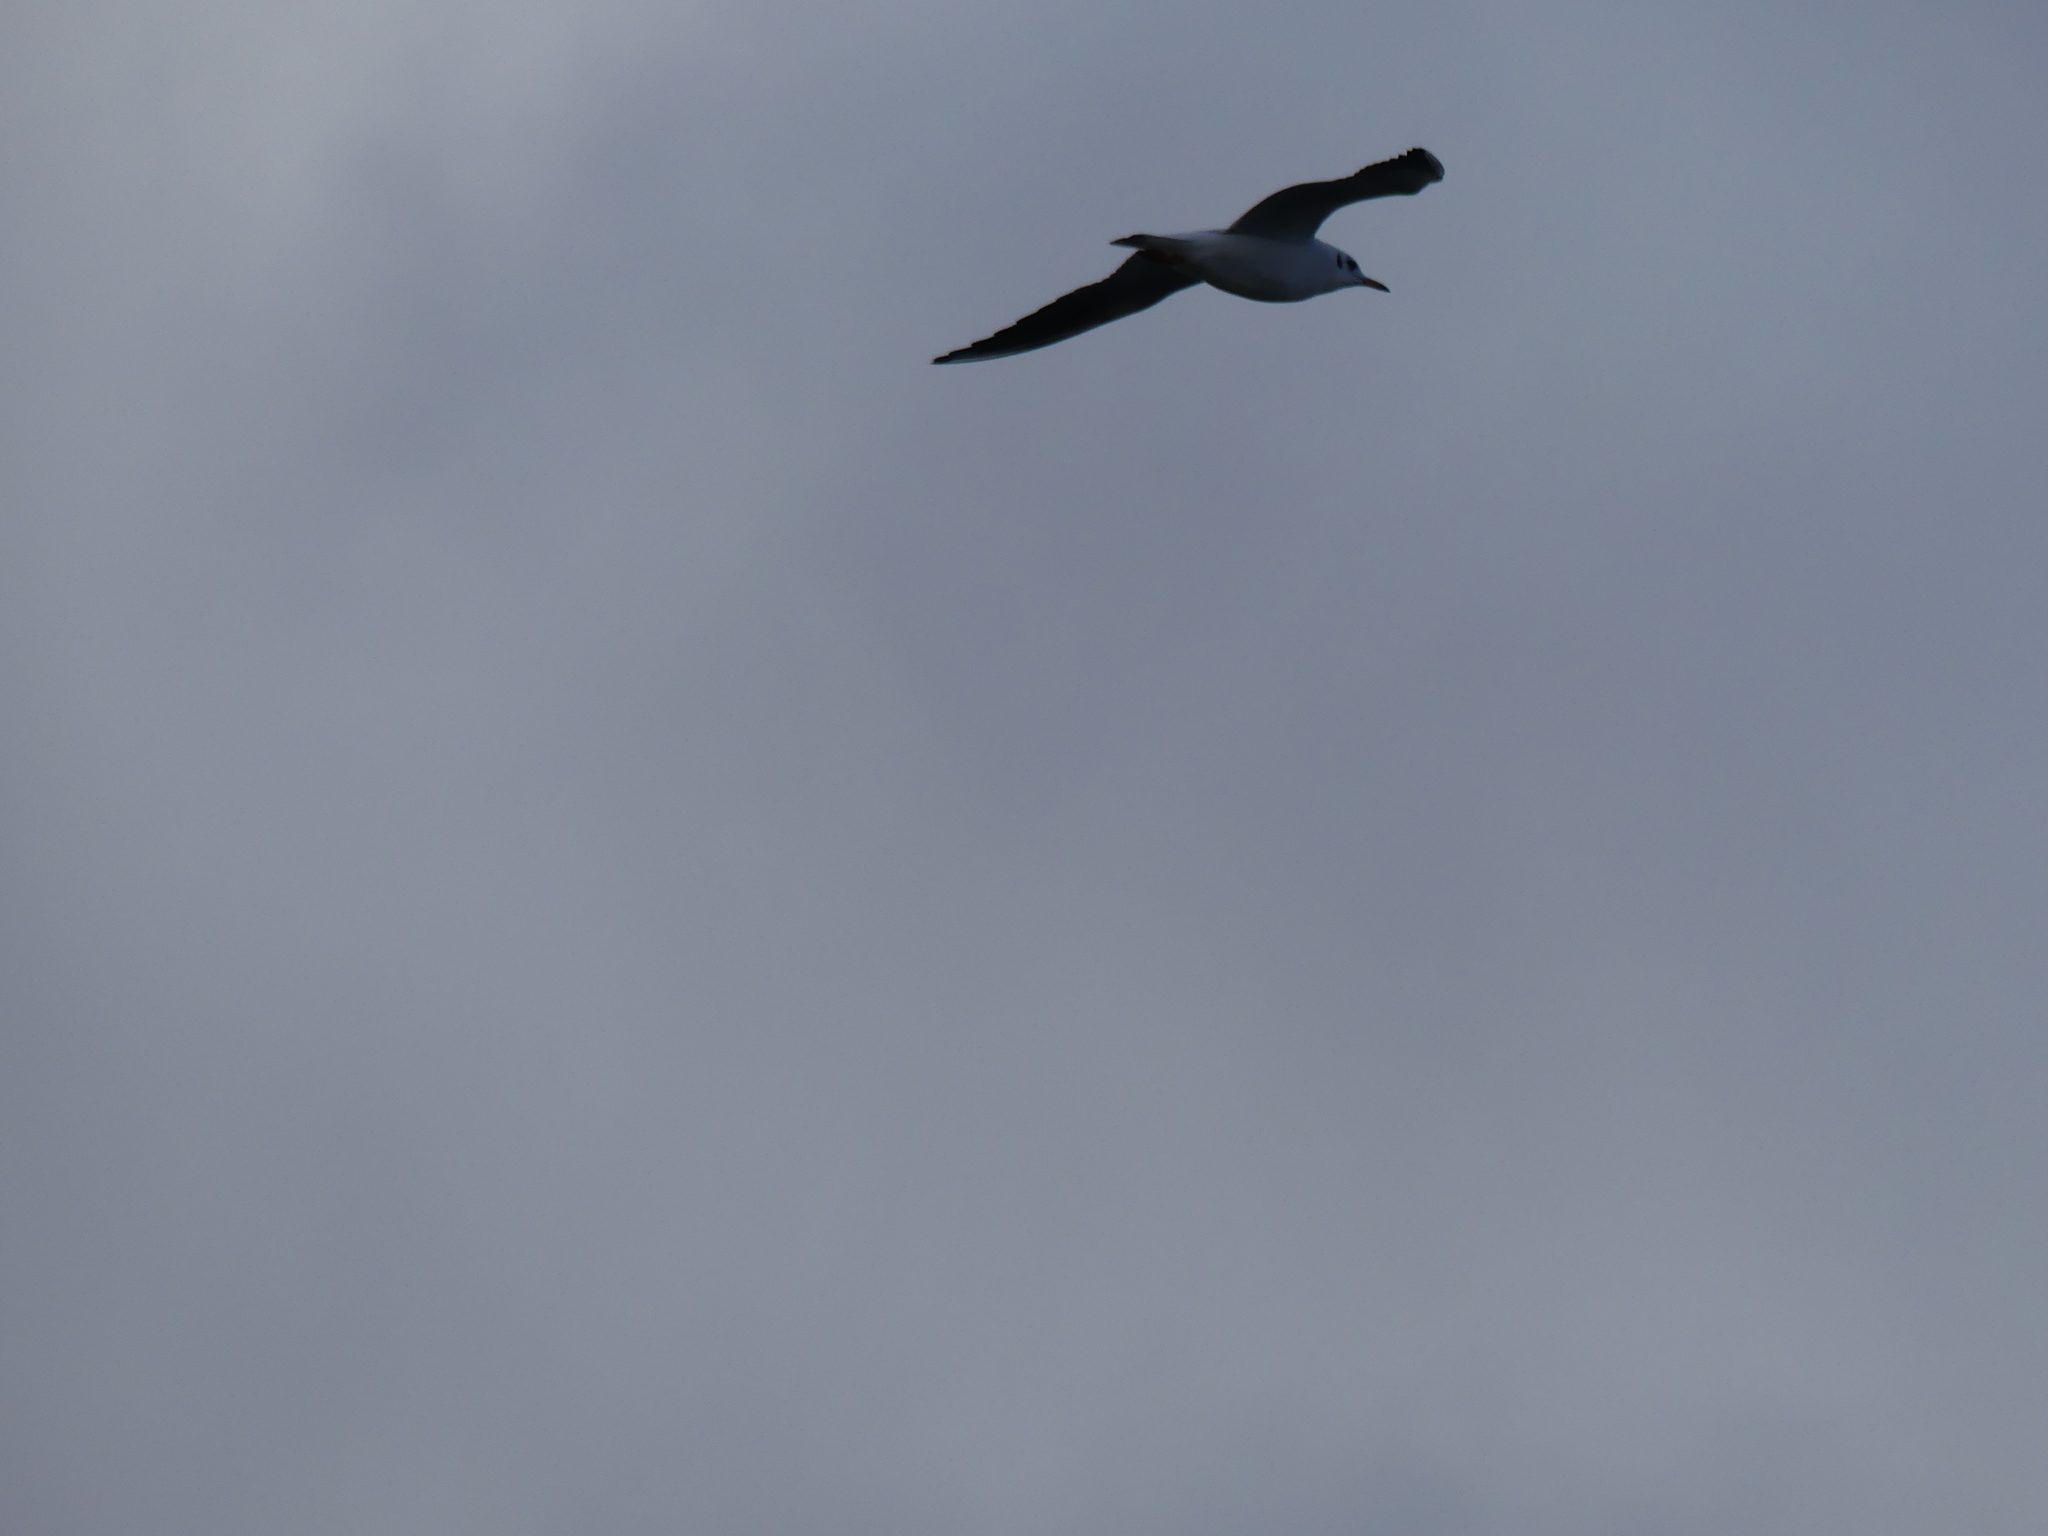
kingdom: Animalia
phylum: Chordata
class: Aves
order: Charadriiformes
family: Laridae
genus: Chroicocephalus
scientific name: Chroicocephalus ridibundus
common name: Black-headed gull
